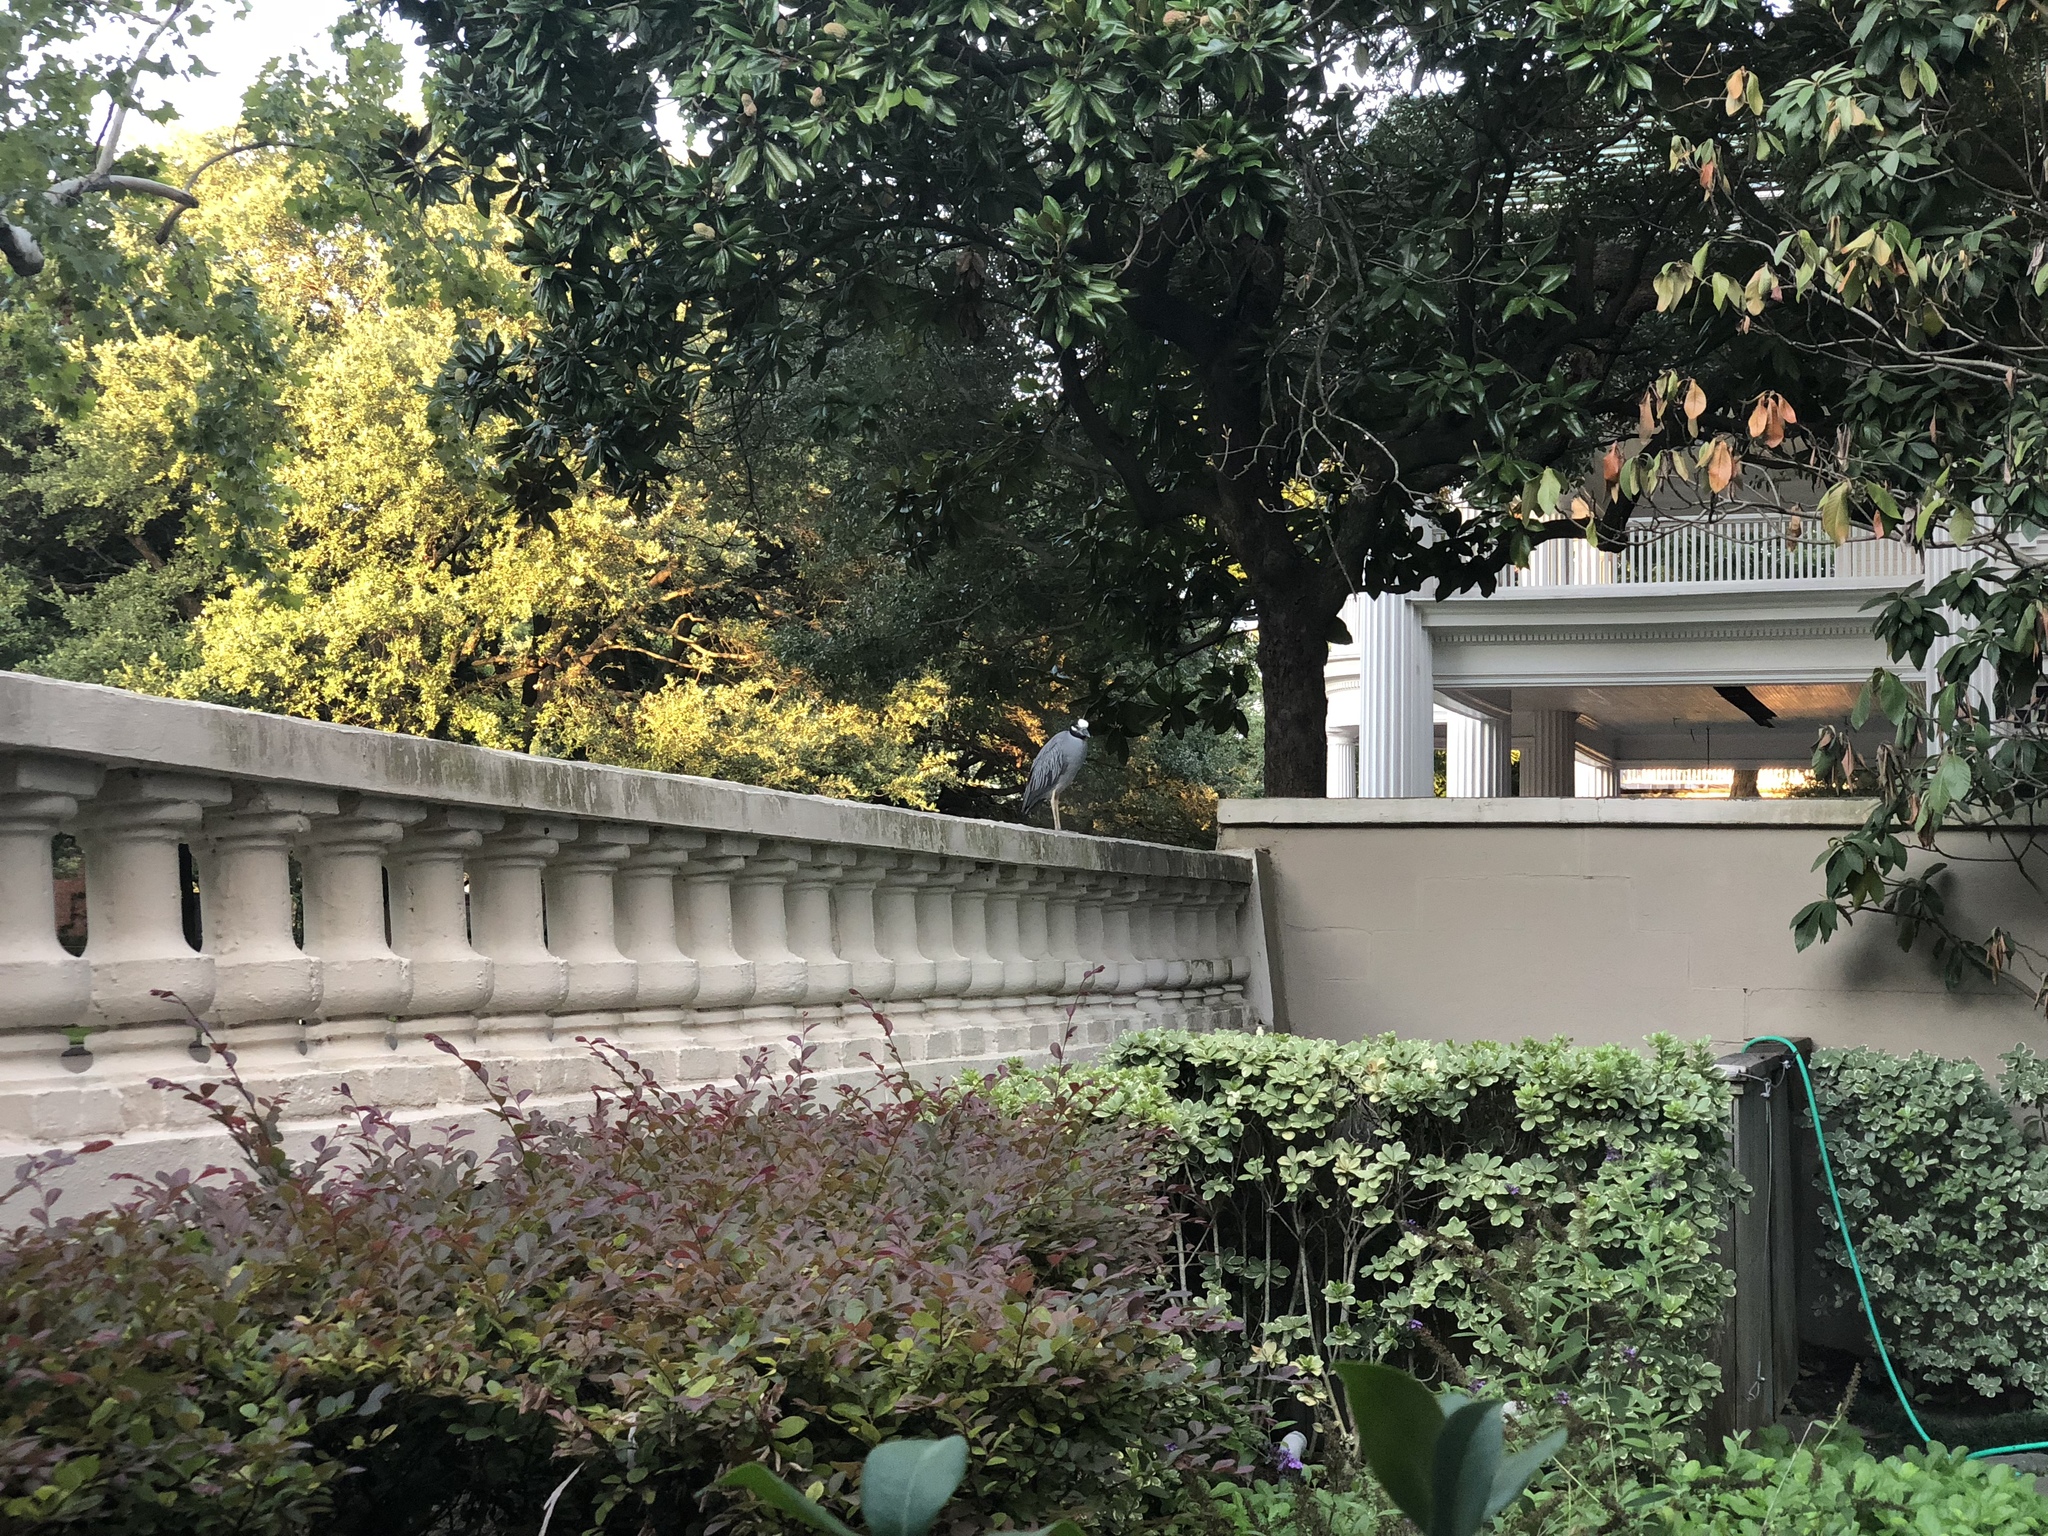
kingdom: Animalia
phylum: Chordata
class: Aves
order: Pelecaniformes
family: Ardeidae
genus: Nyctanassa
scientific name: Nyctanassa violacea
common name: Yellow-crowned night heron
